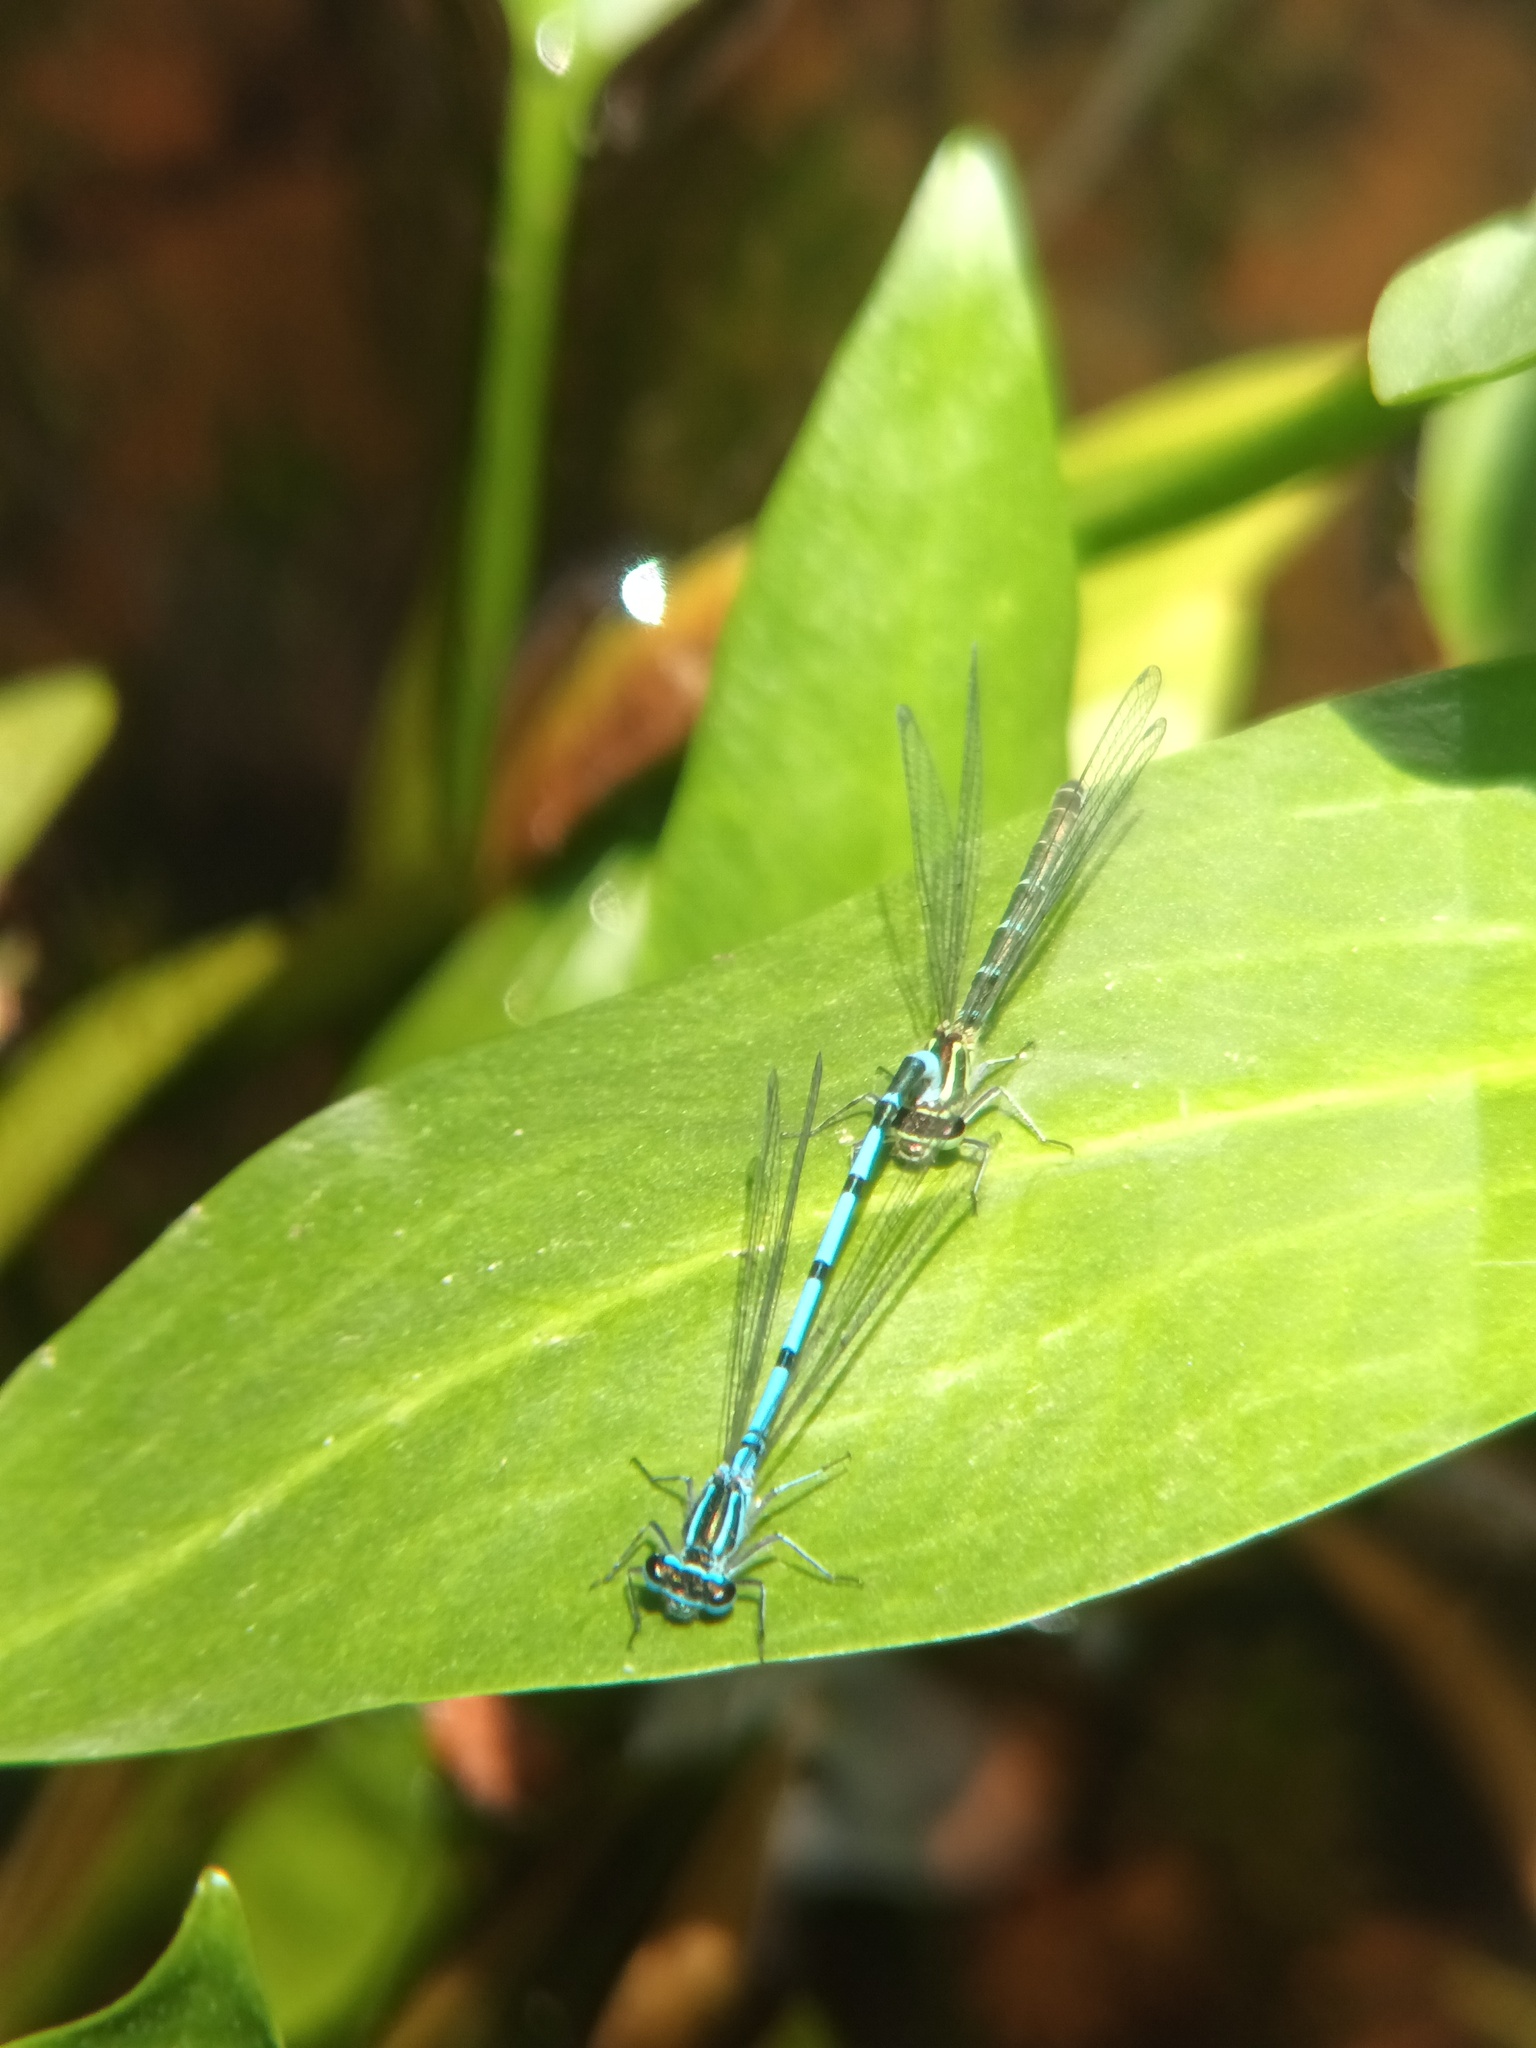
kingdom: Animalia
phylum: Arthropoda
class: Insecta
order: Odonata
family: Coenagrionidae
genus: Coenagrion
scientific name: Coenagrion puella
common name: Azure damselfly
